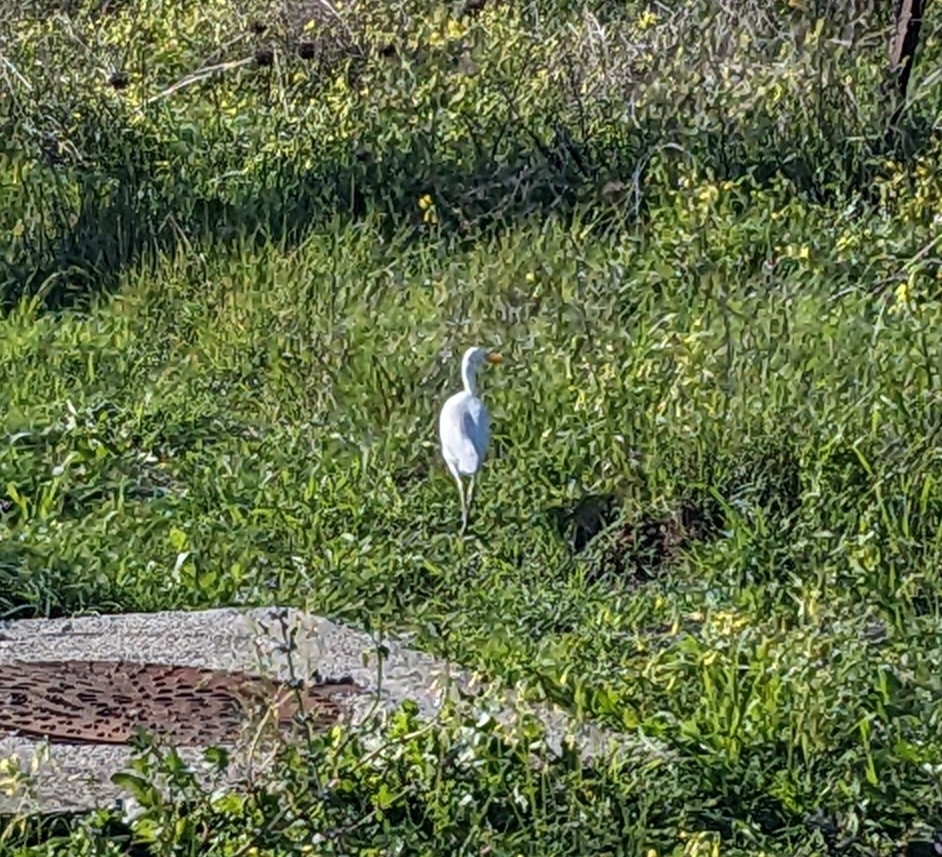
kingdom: Animalia
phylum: Chordata
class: Aves
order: Pelecaniformes
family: Ardeidae
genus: Bubulcus
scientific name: Bubulcus ibis
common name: Cattle egret
